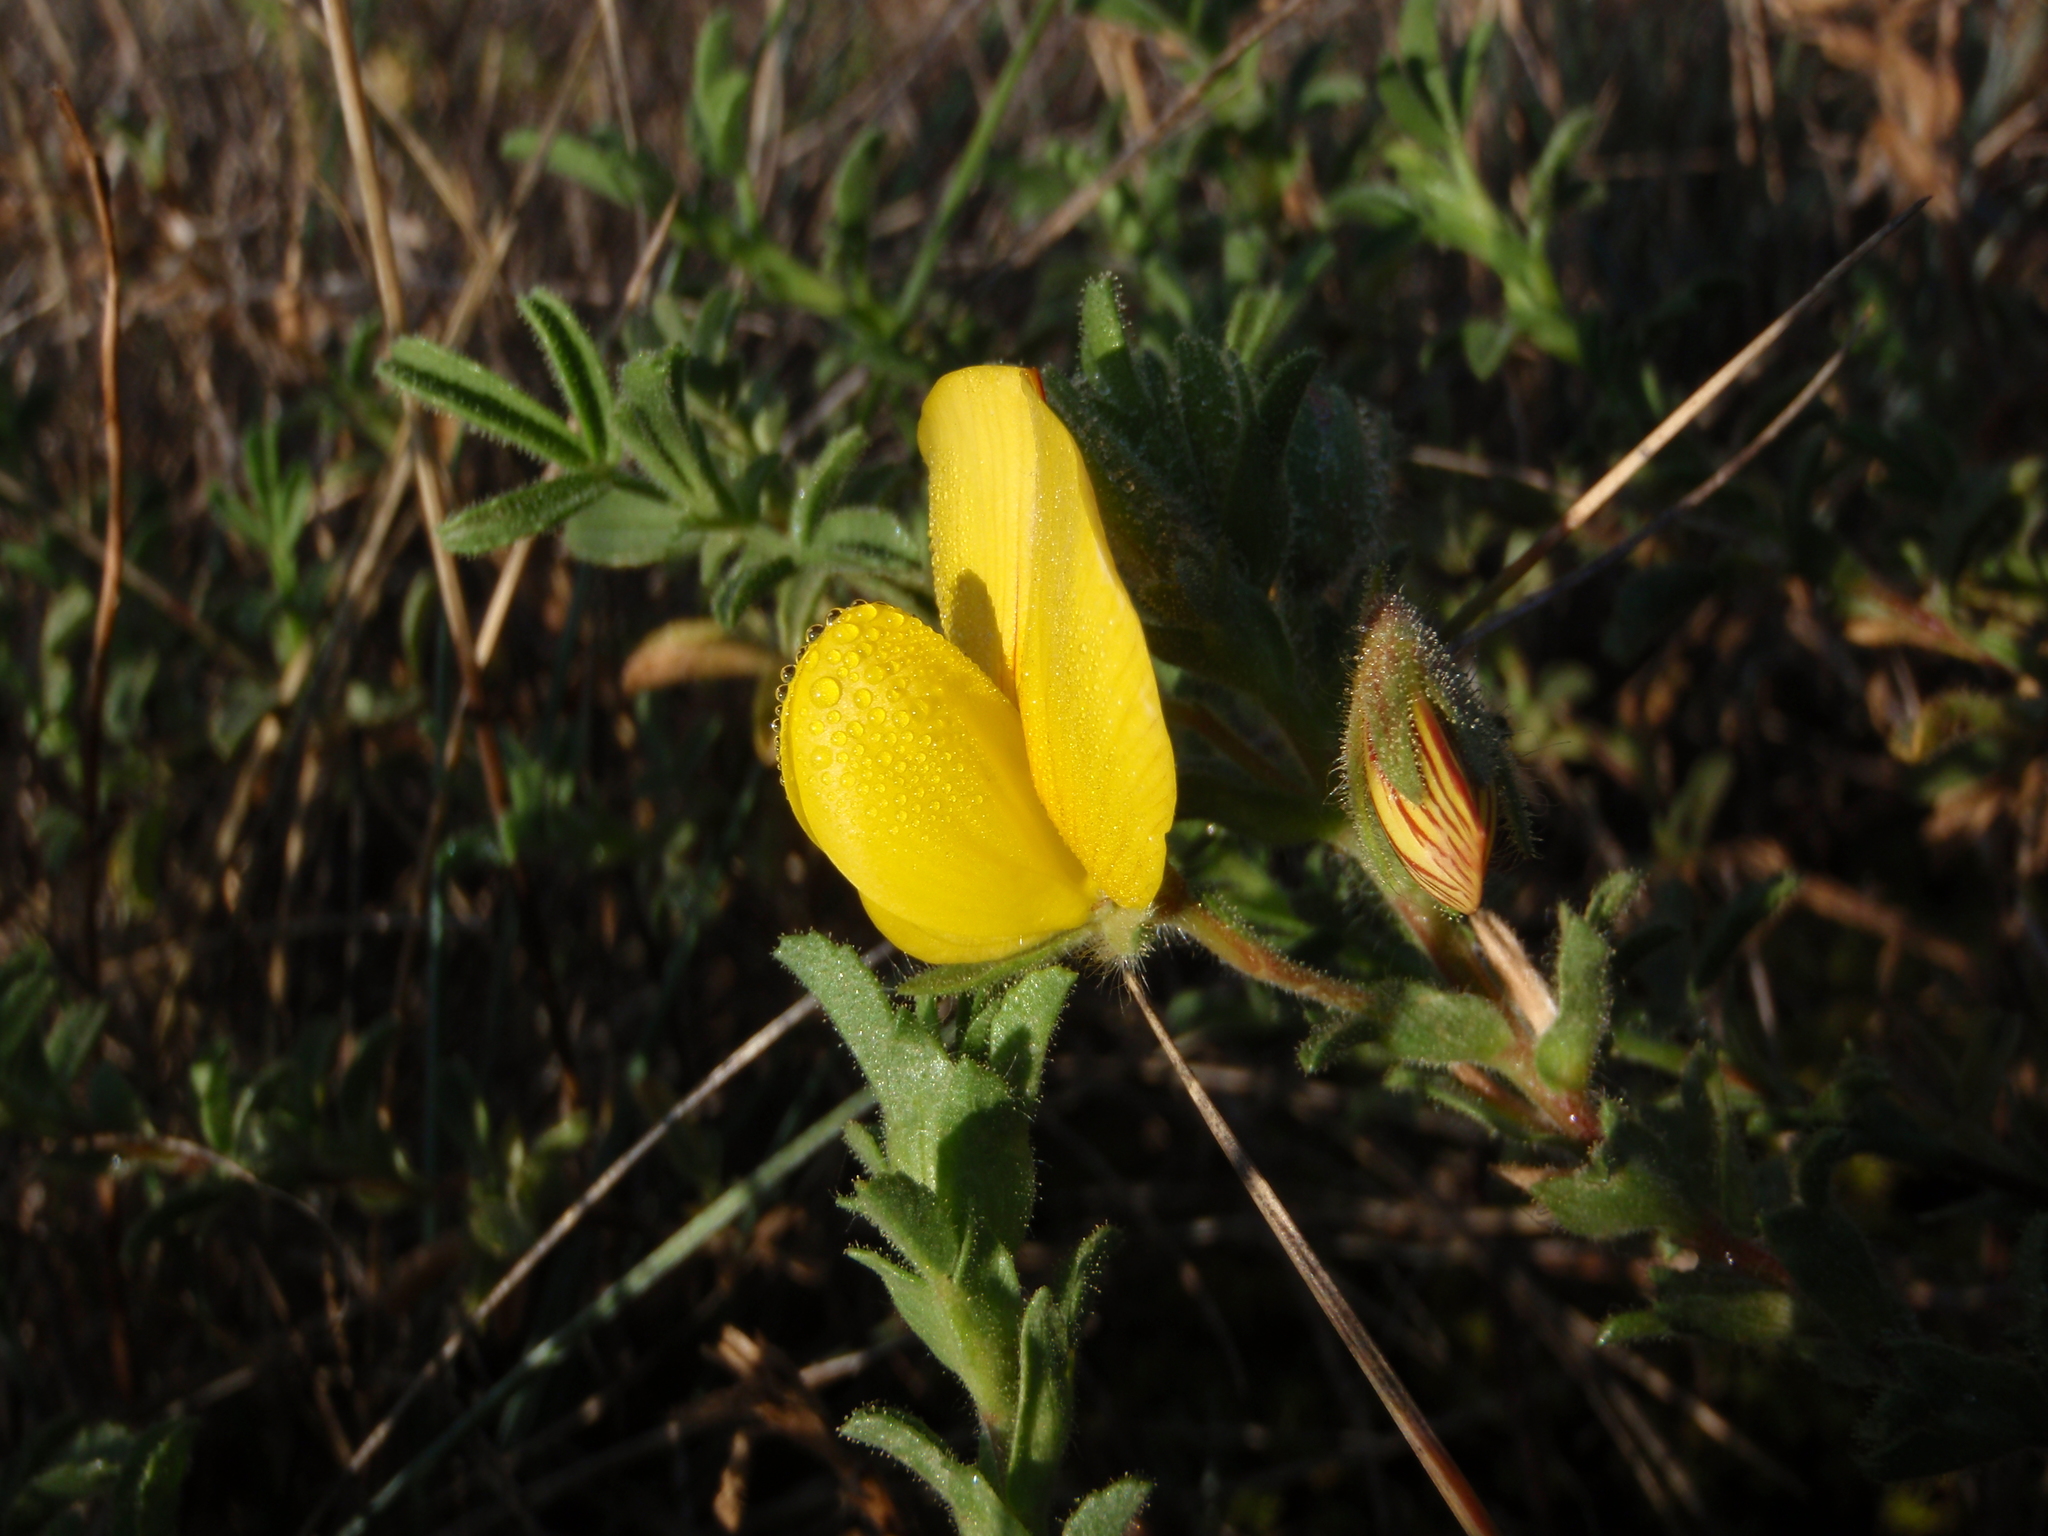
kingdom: Plantae
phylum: Tracheophyta
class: Magnoliopsida
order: Fabales
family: Fabaceae
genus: Ononis
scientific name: Ononis natrix
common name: Yellow restharrow
